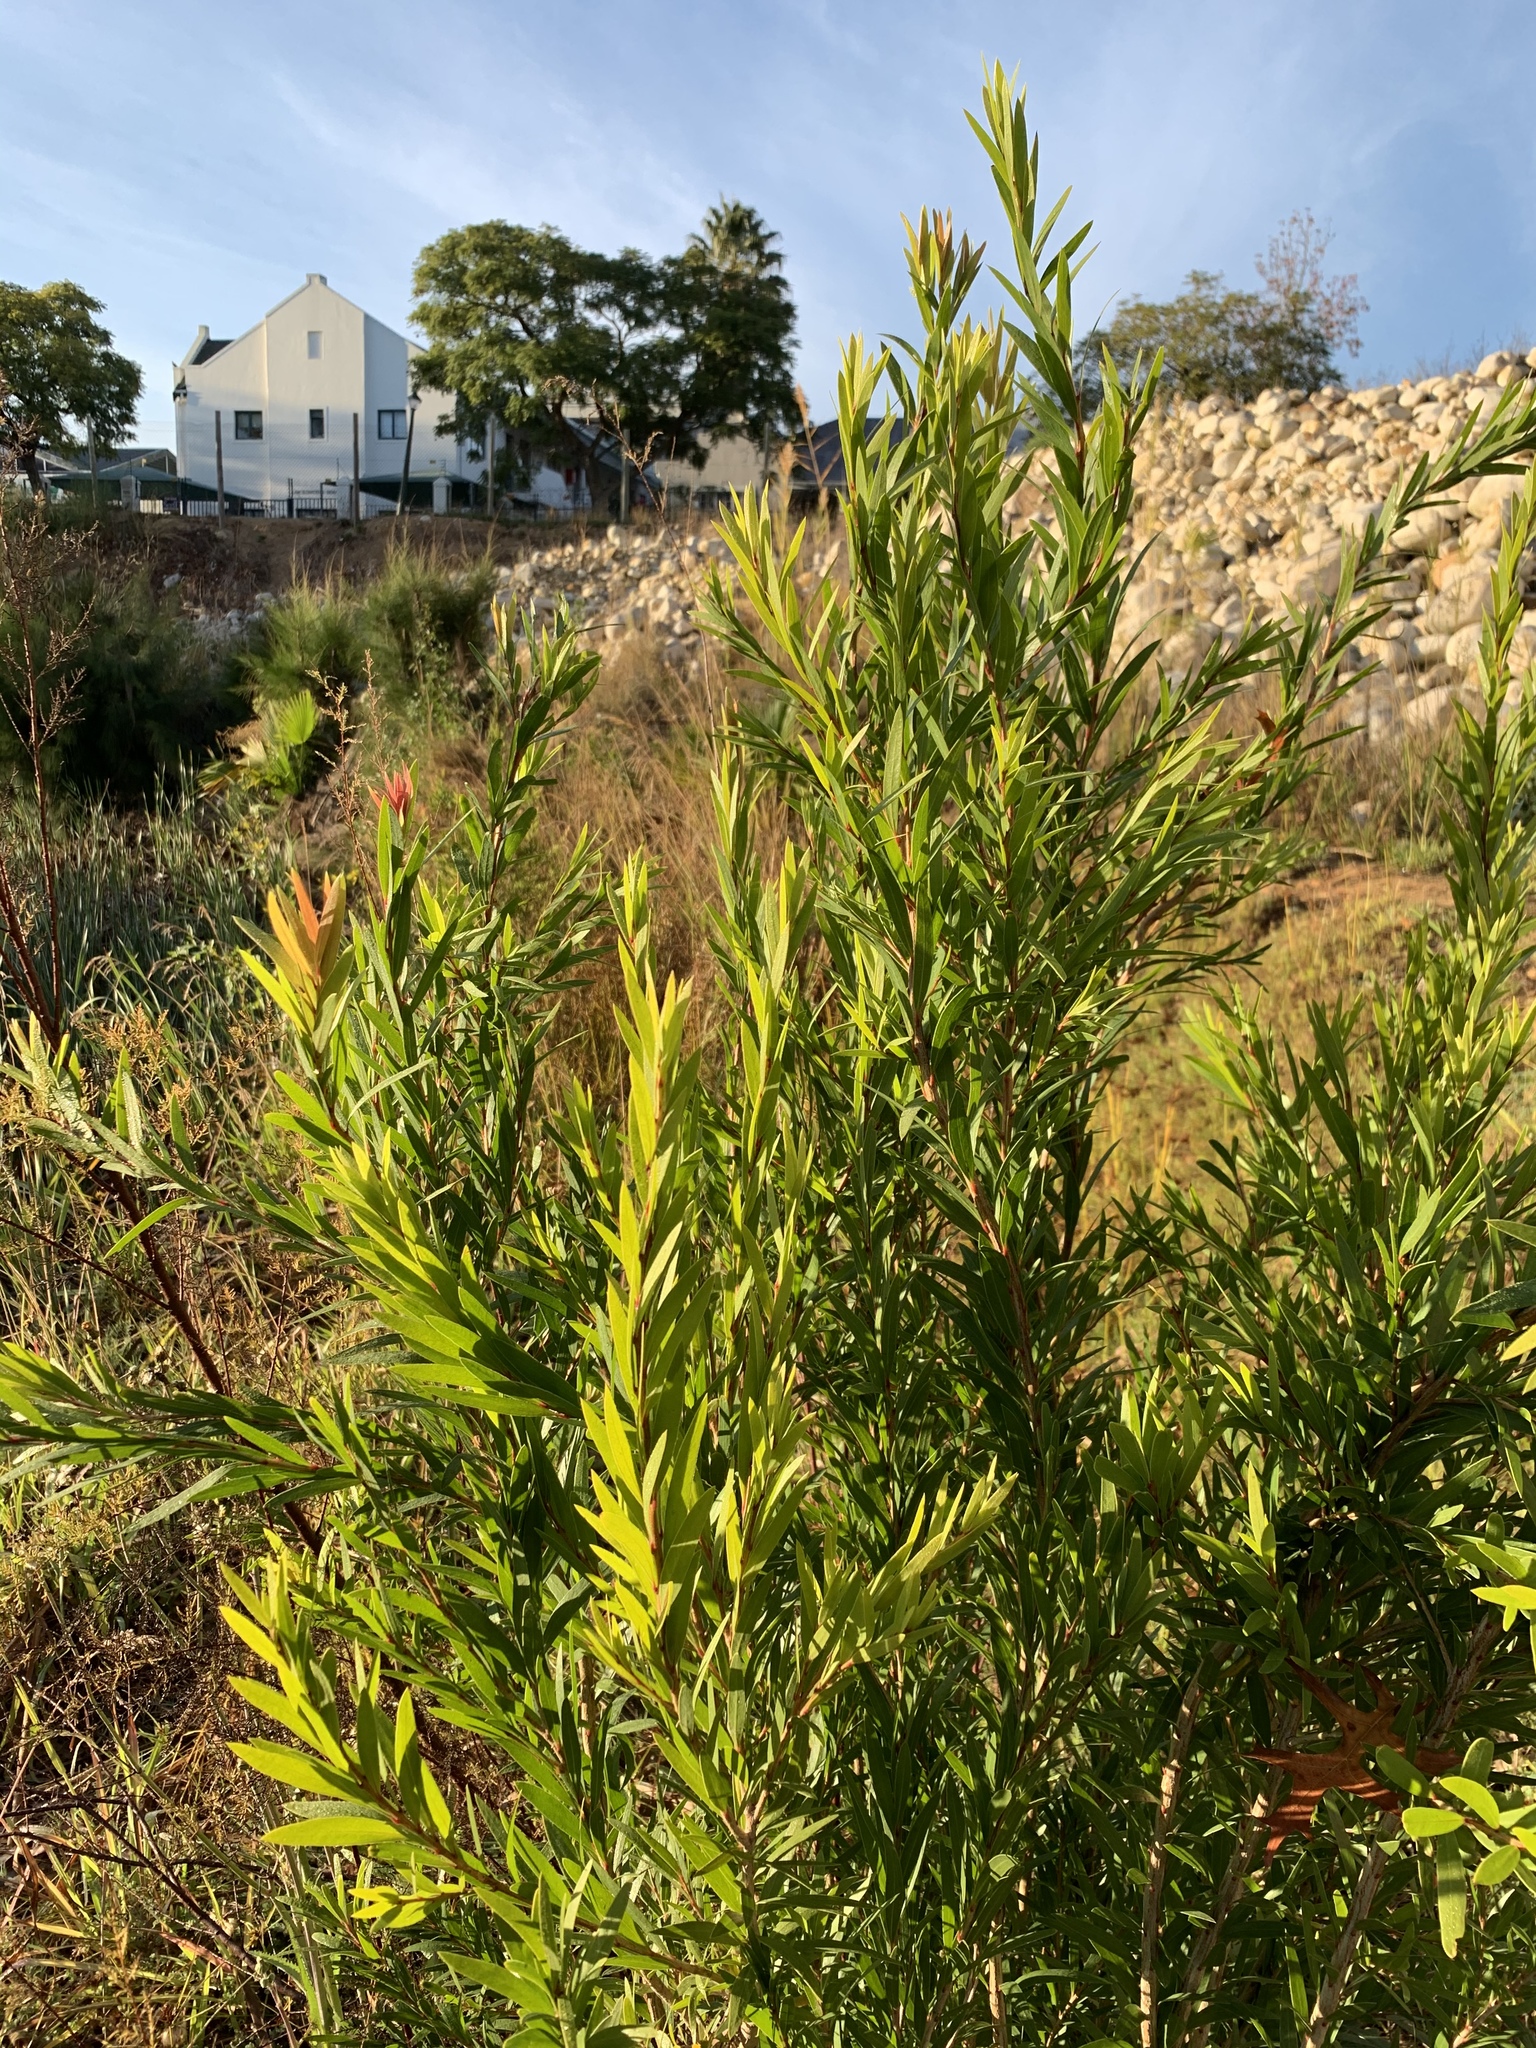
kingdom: Plantae
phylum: Tracheophyta
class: Magnoliopsida
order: Myrtales
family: Myrtaceae
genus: Callistemon
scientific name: Callistemon viminalis
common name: Drooping bottlebrush
